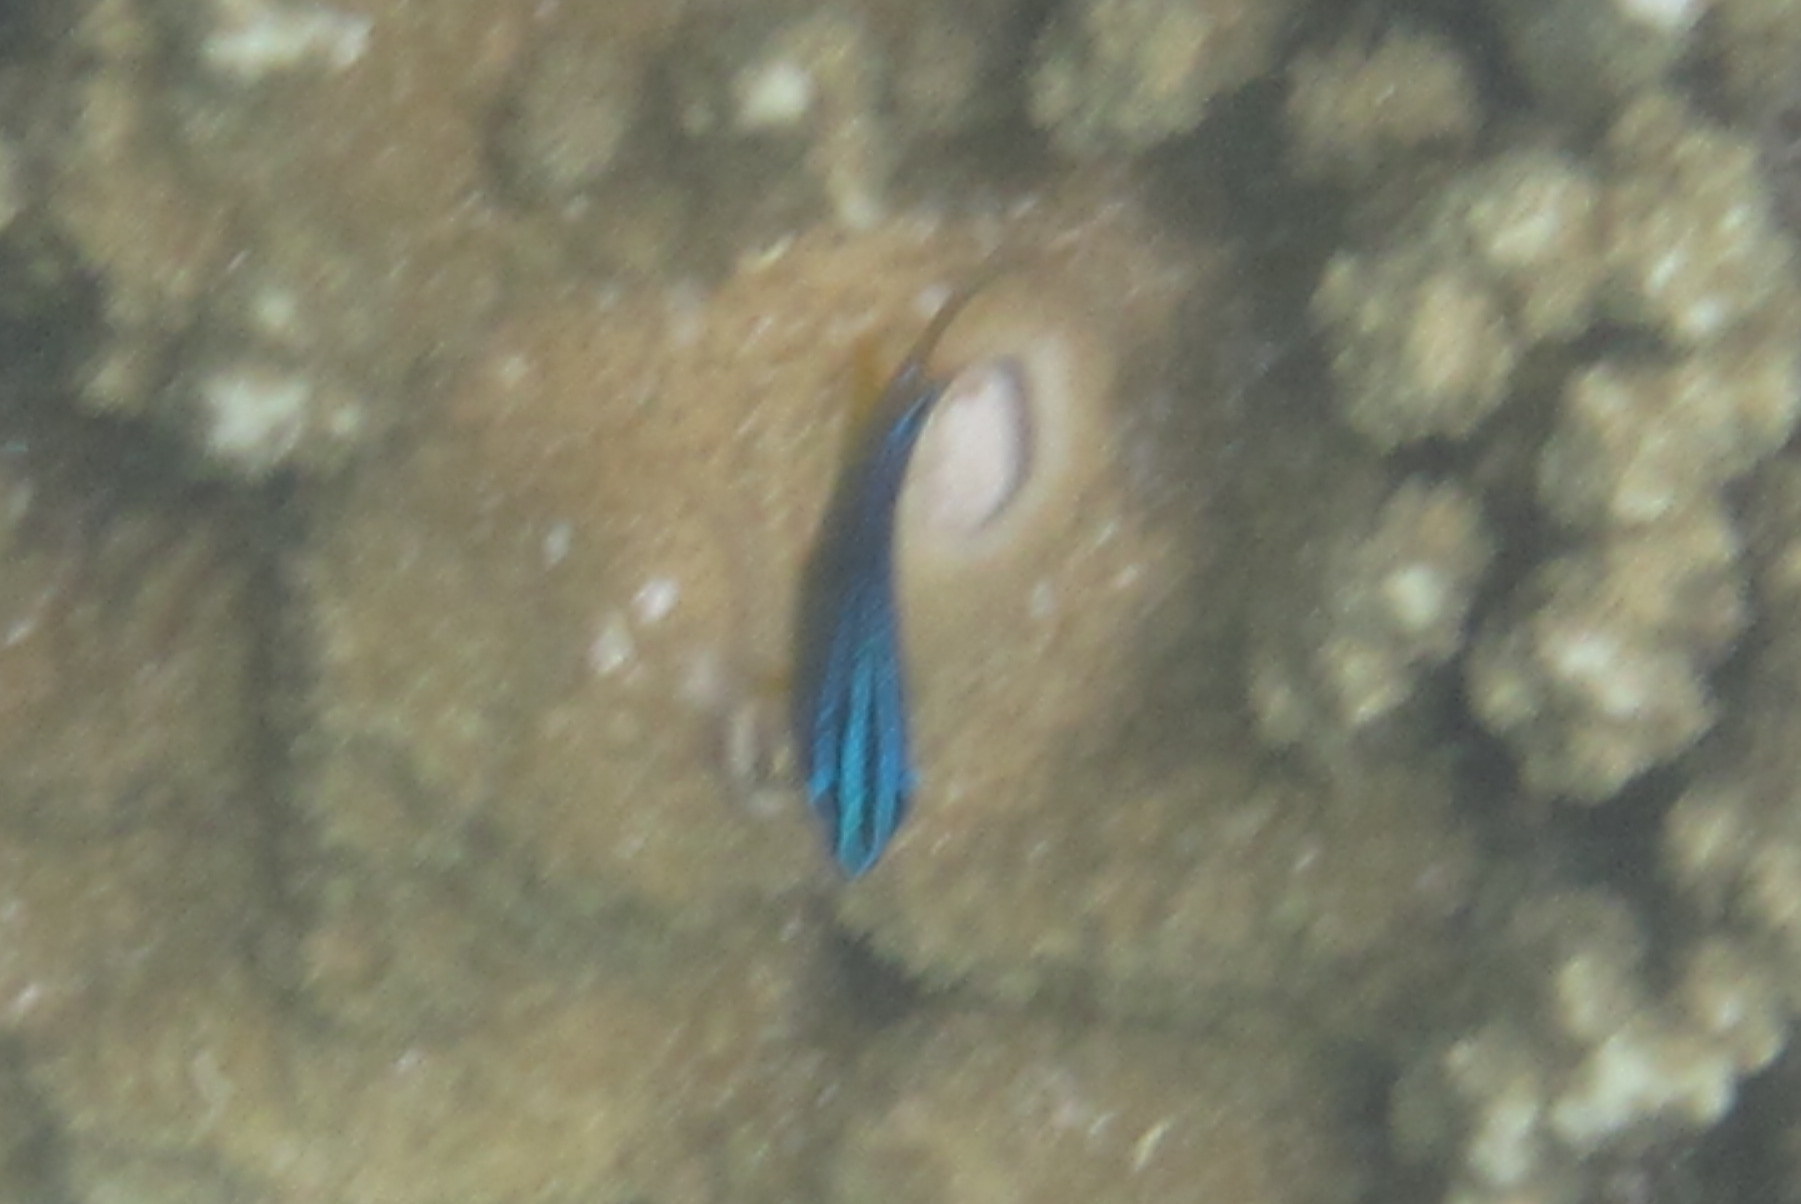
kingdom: Animalia
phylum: Chordata
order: Perciformes
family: Pomacentridae
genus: Pomacentrus
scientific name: Pomacentrus wardi
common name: Ward's damsel
